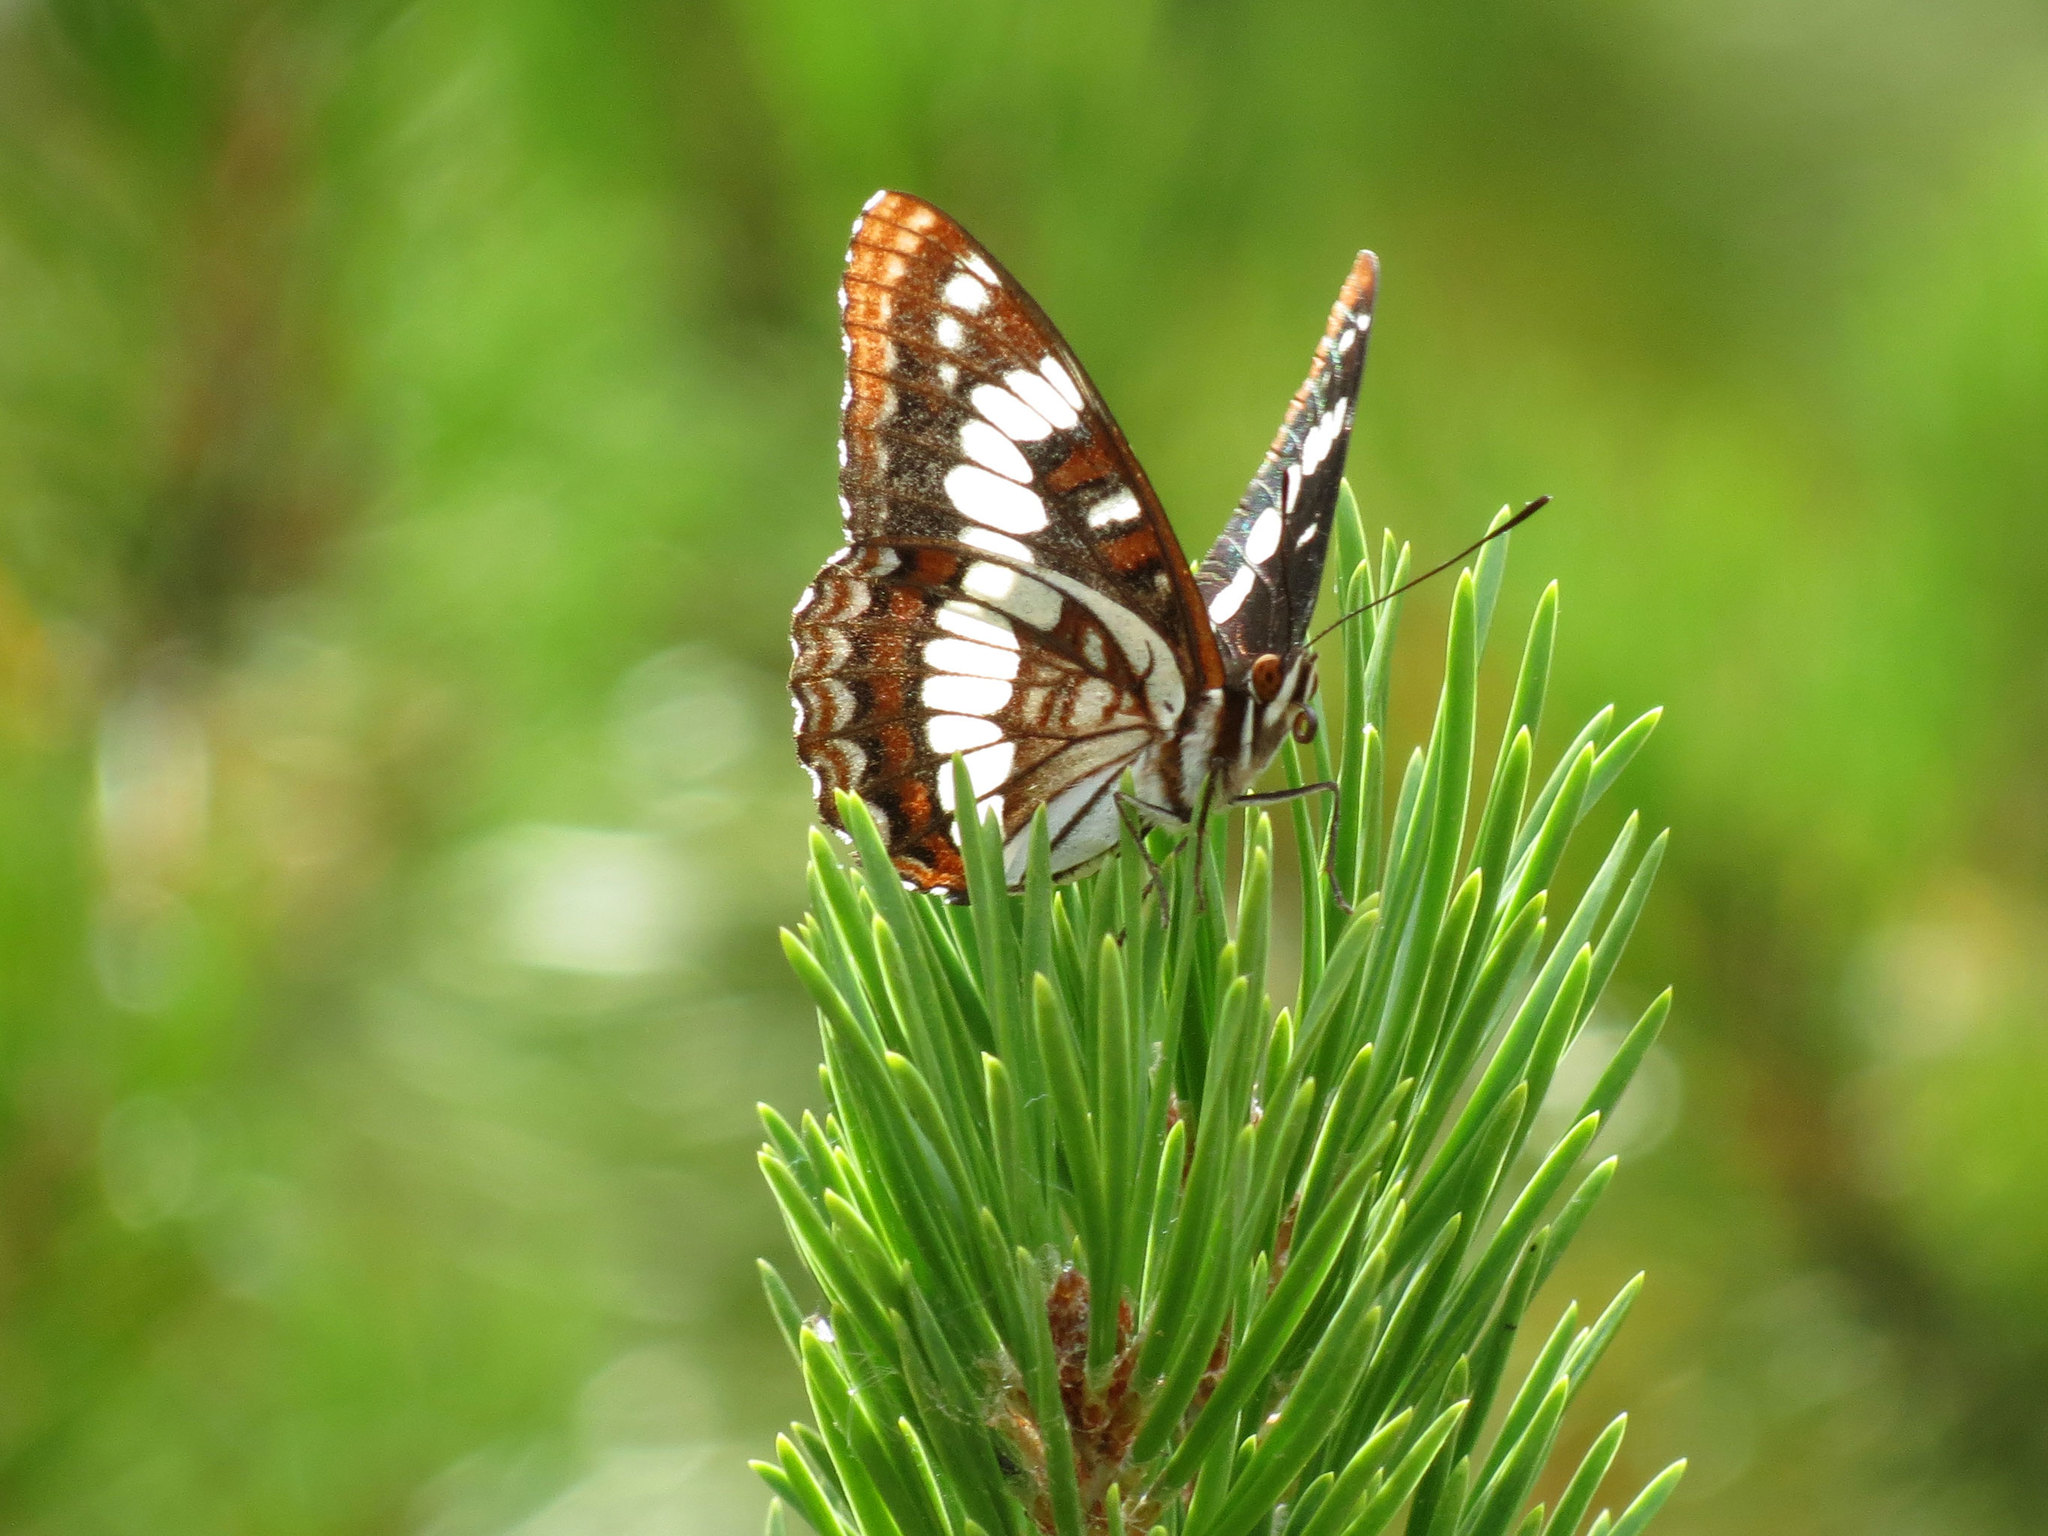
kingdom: Animalia
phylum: Arthropoda
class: Insecta
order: Lepidoptera
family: Nymphalidae
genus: Limenitis
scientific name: Limenitis lorquini
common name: Lorquin's admiral
